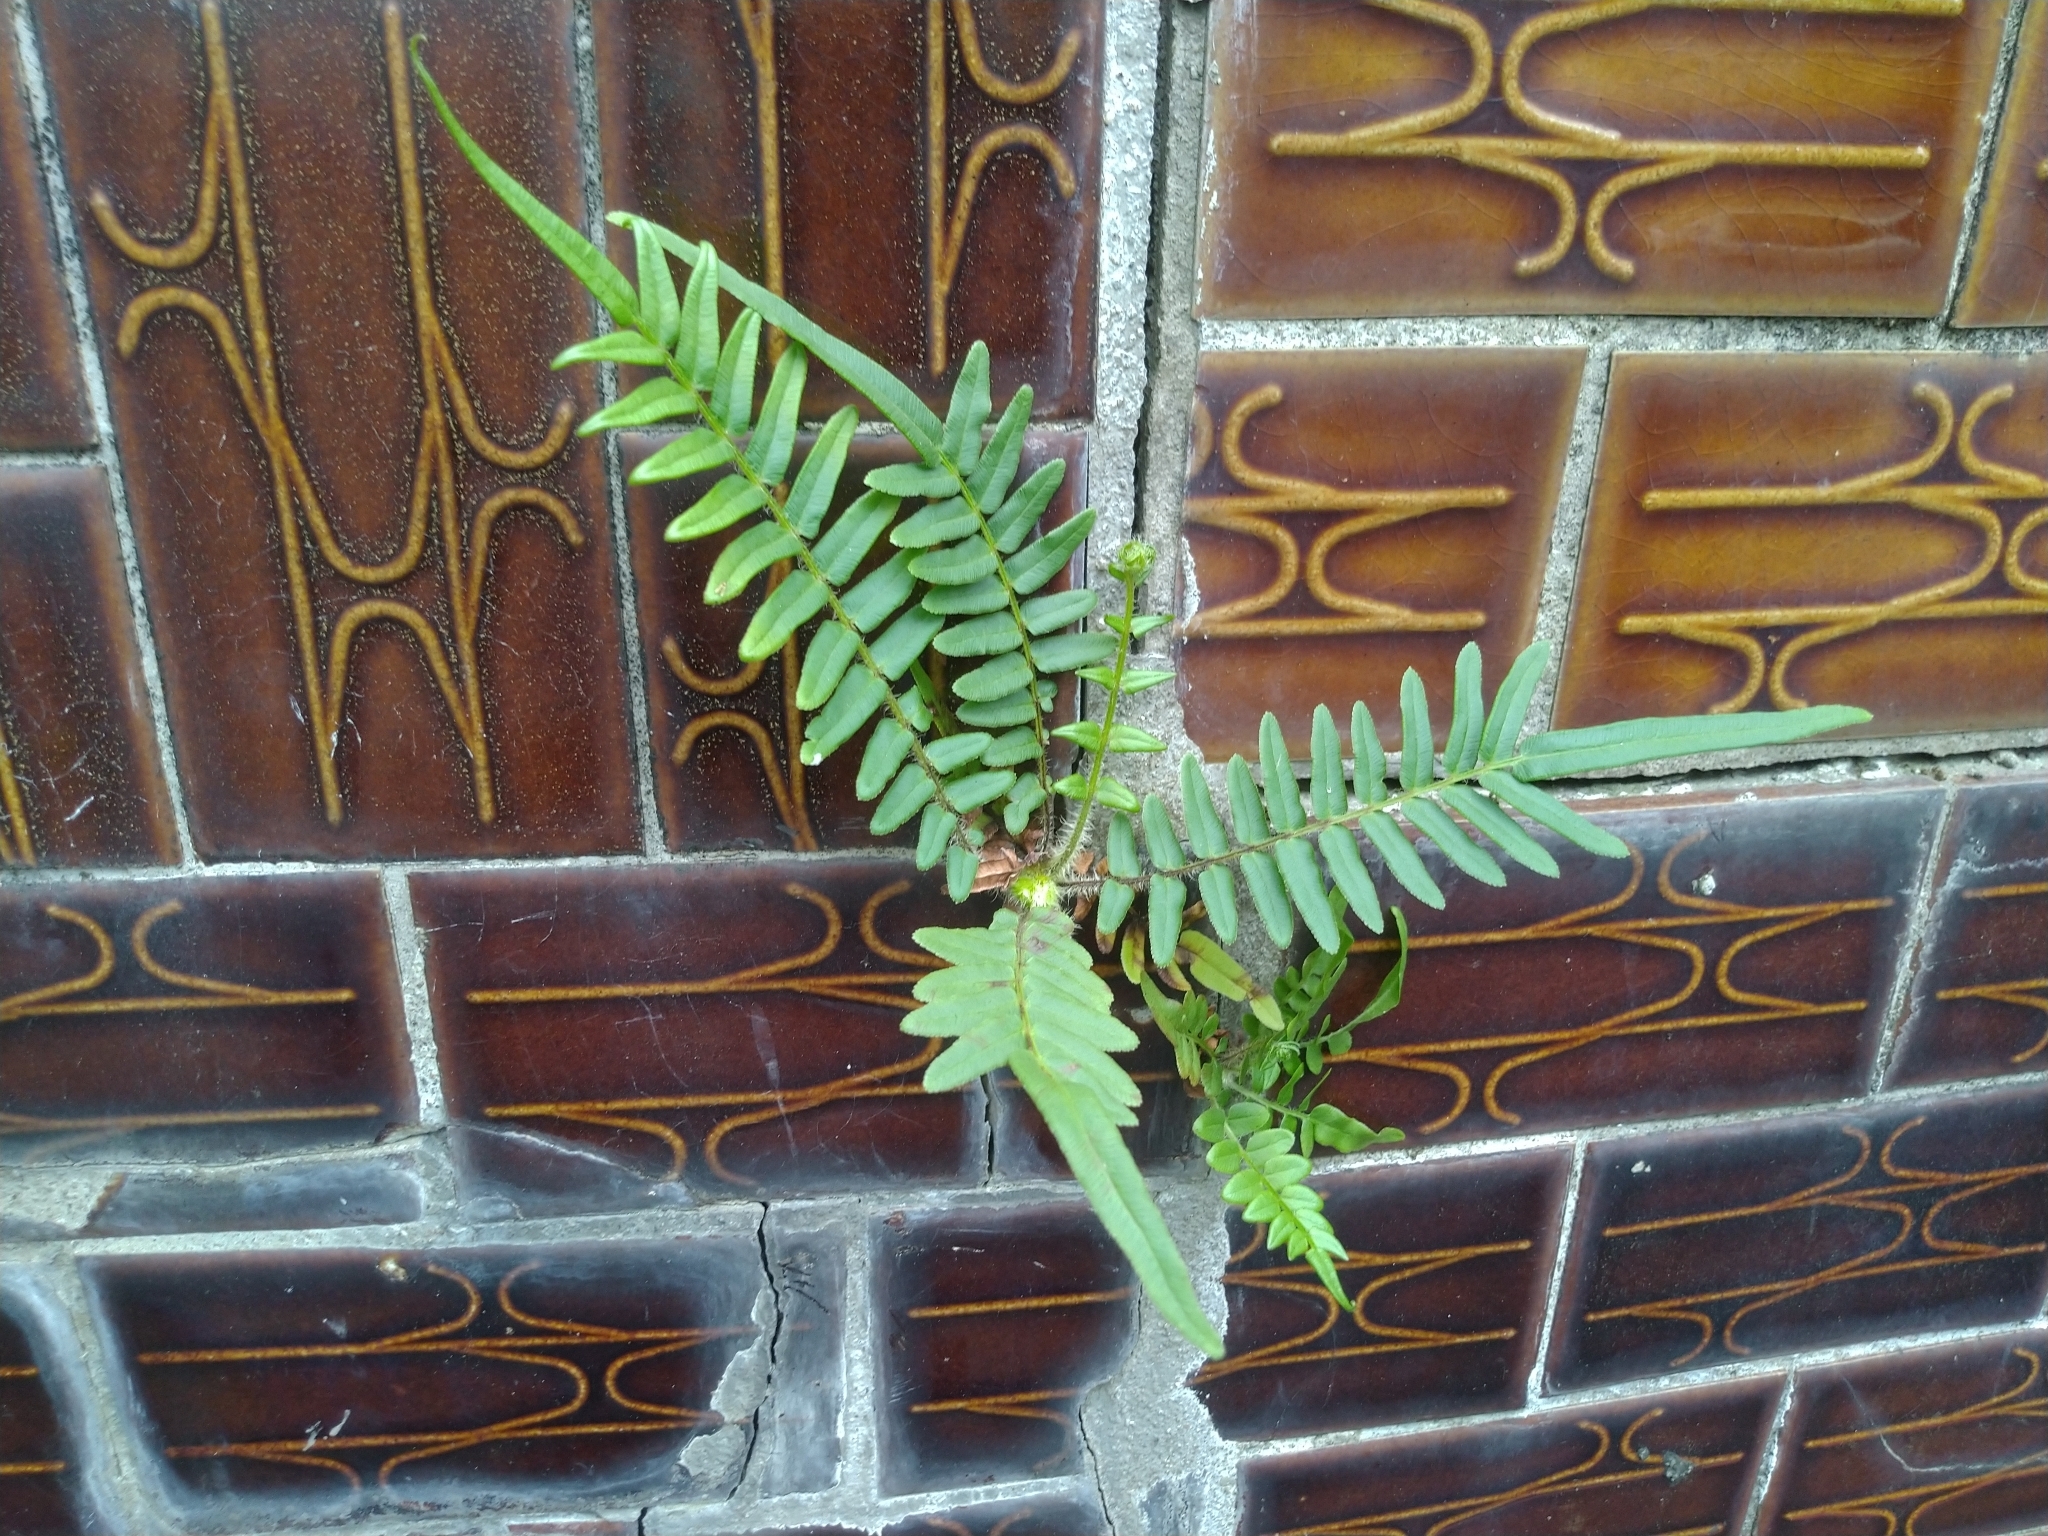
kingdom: Plantae
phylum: Tracheophyta
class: Polypodiopsida
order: Polypodiales
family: Pteridaceae
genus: Pteris
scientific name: Pteris vittata
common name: Ladder brake
